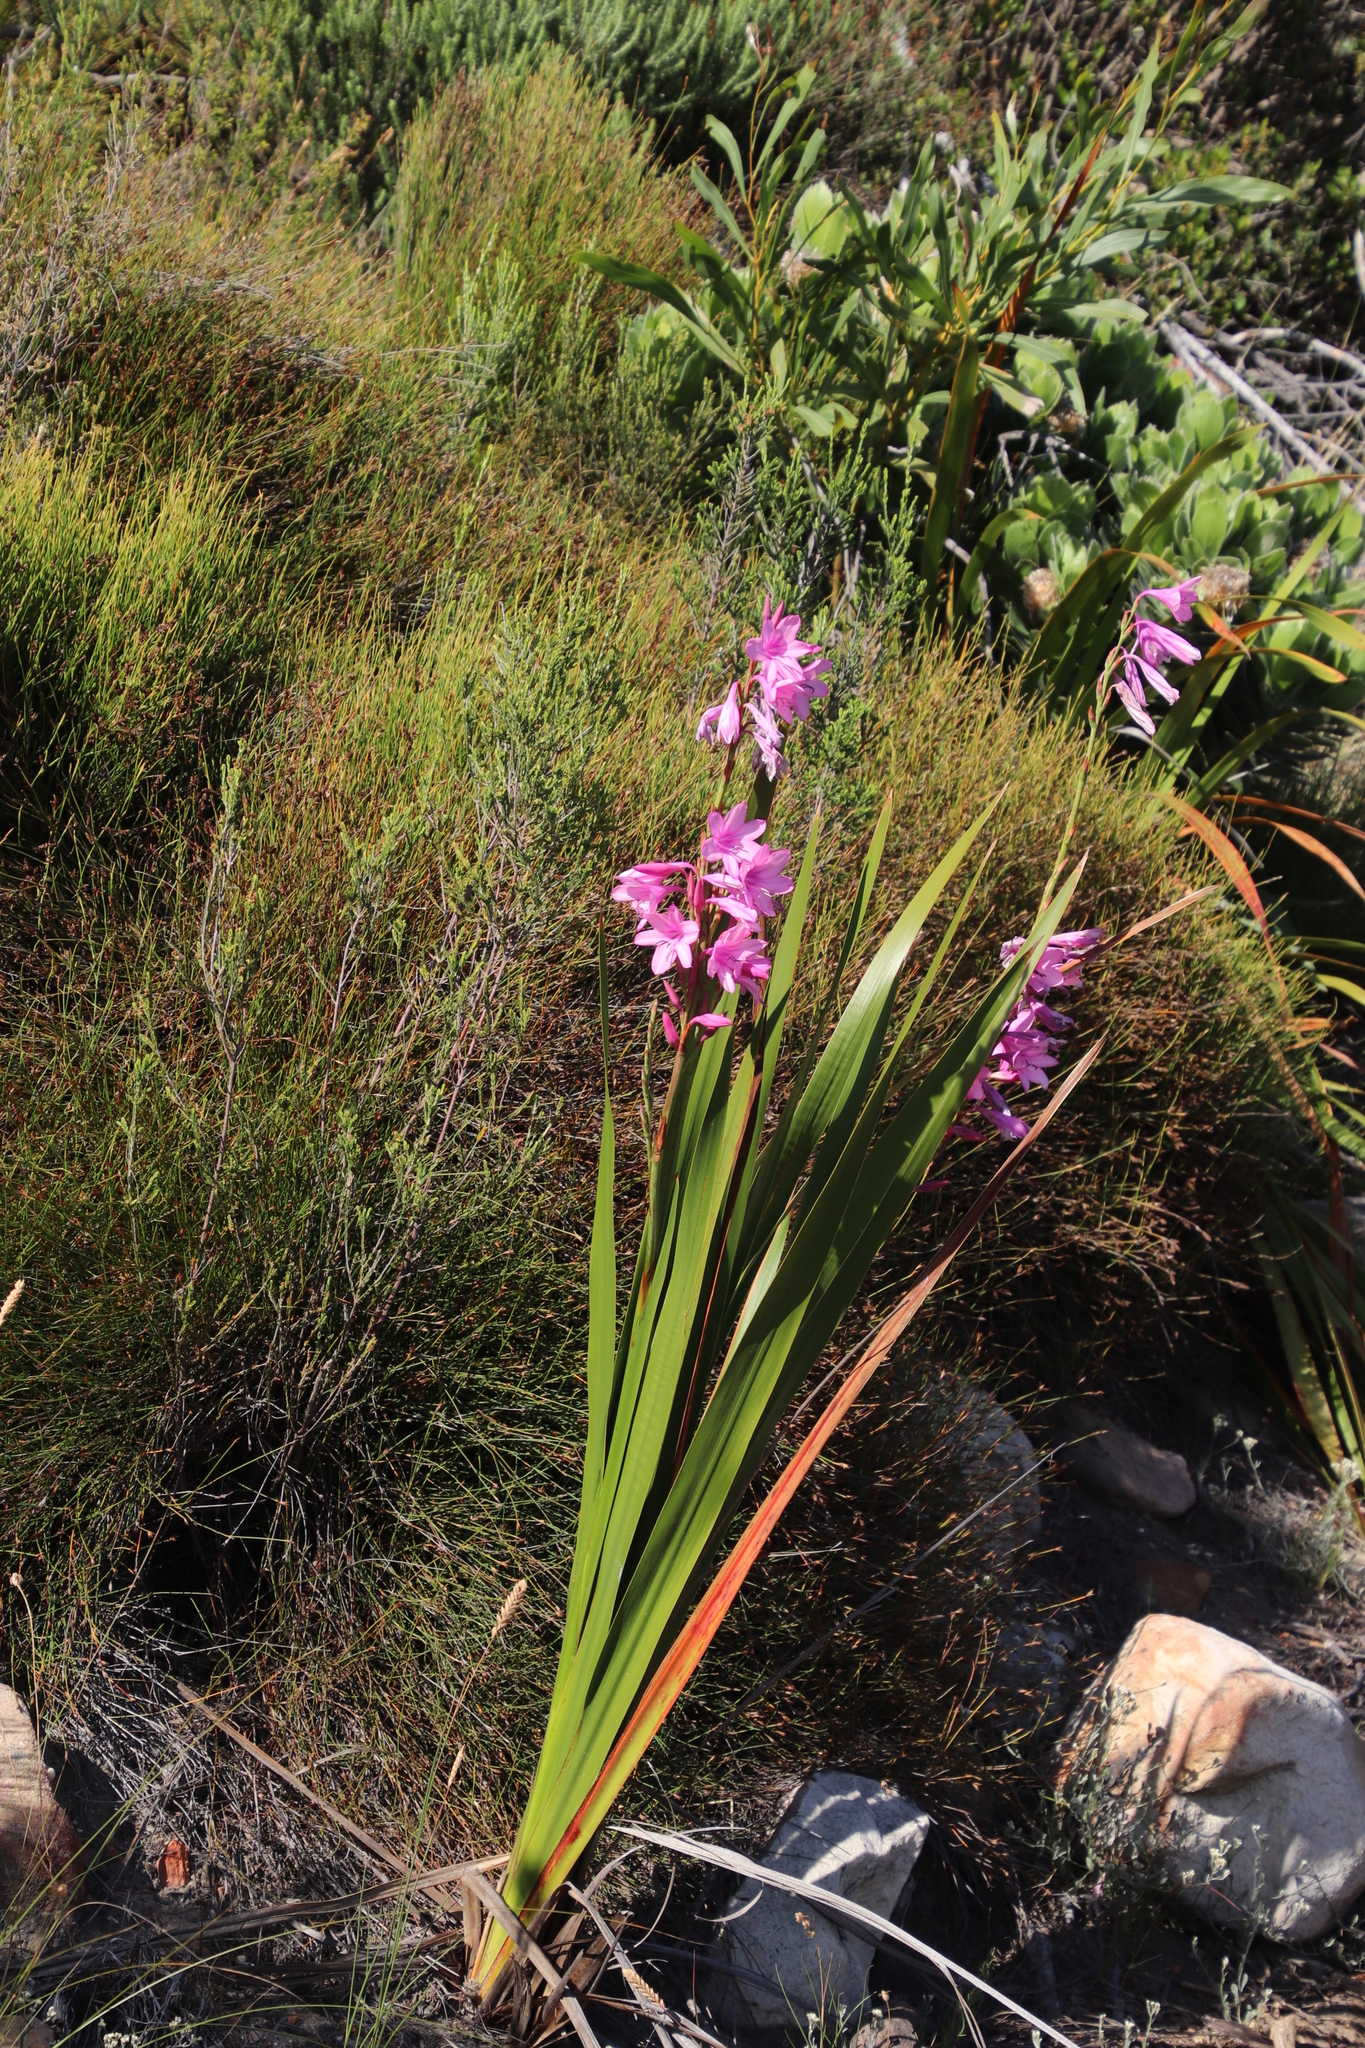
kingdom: Plantae
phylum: Tracheophyta
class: Liliopsida
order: Asparagales
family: Iridaceae
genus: Watsonia
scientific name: Watsonia borbonica
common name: Bugle-lily
